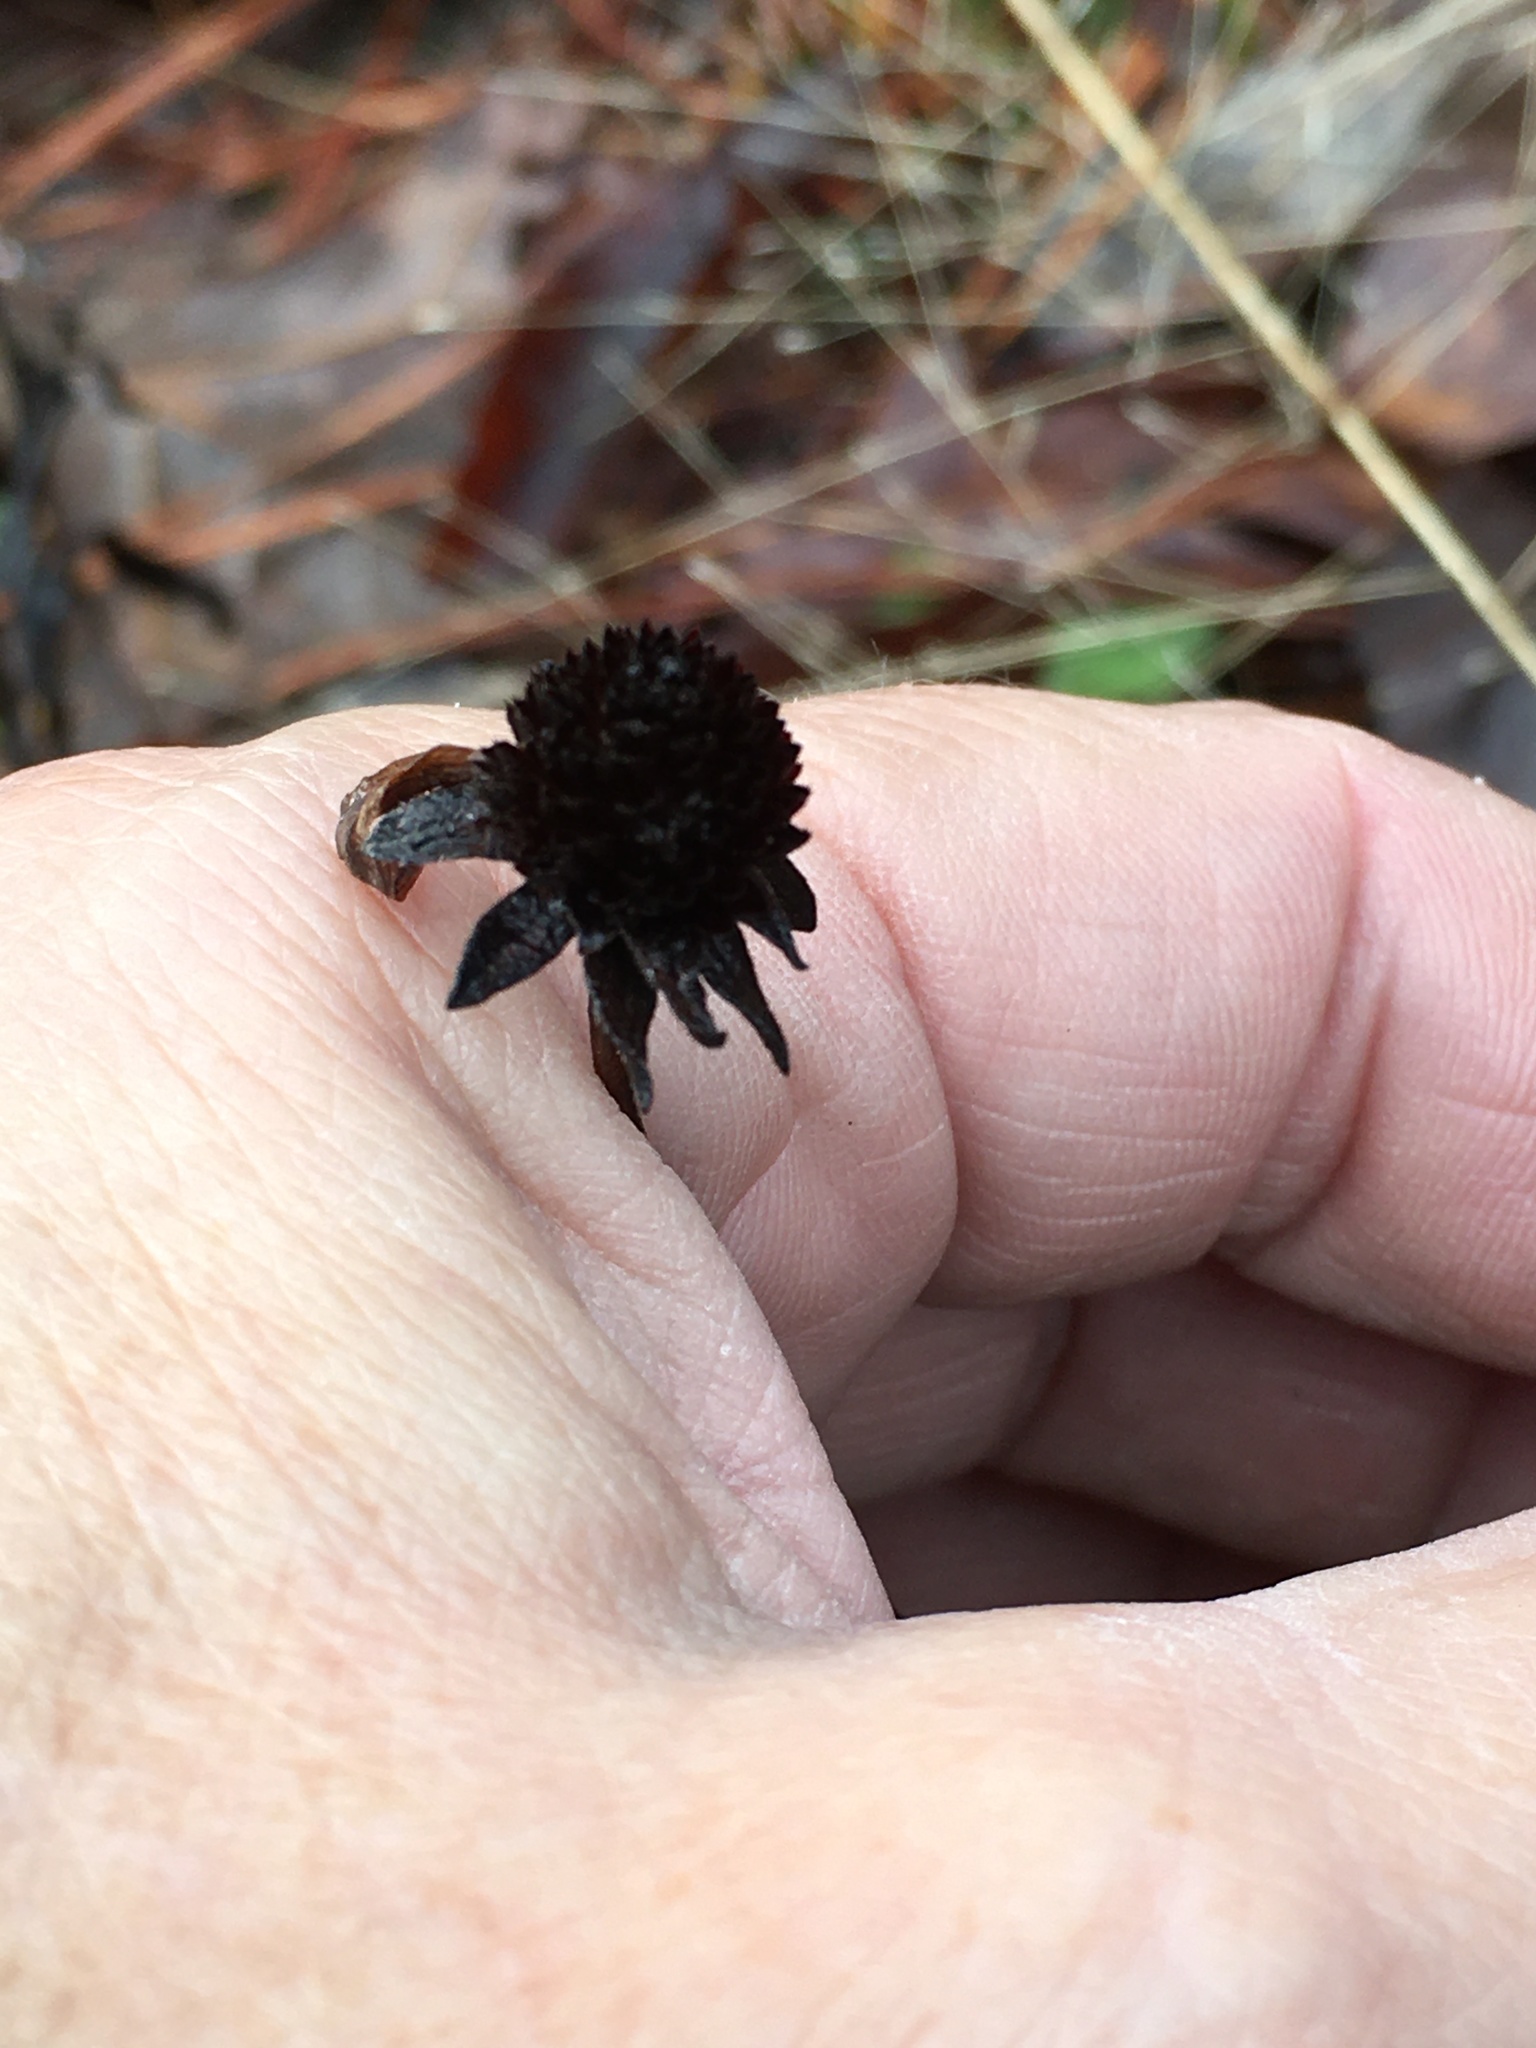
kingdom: Plantae
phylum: Tracheophyta
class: Magnoliopsida
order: Asterales
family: Asteraceae
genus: Rudbeckia
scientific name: Rudbeckia hirta
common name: Black-eyed-susan
